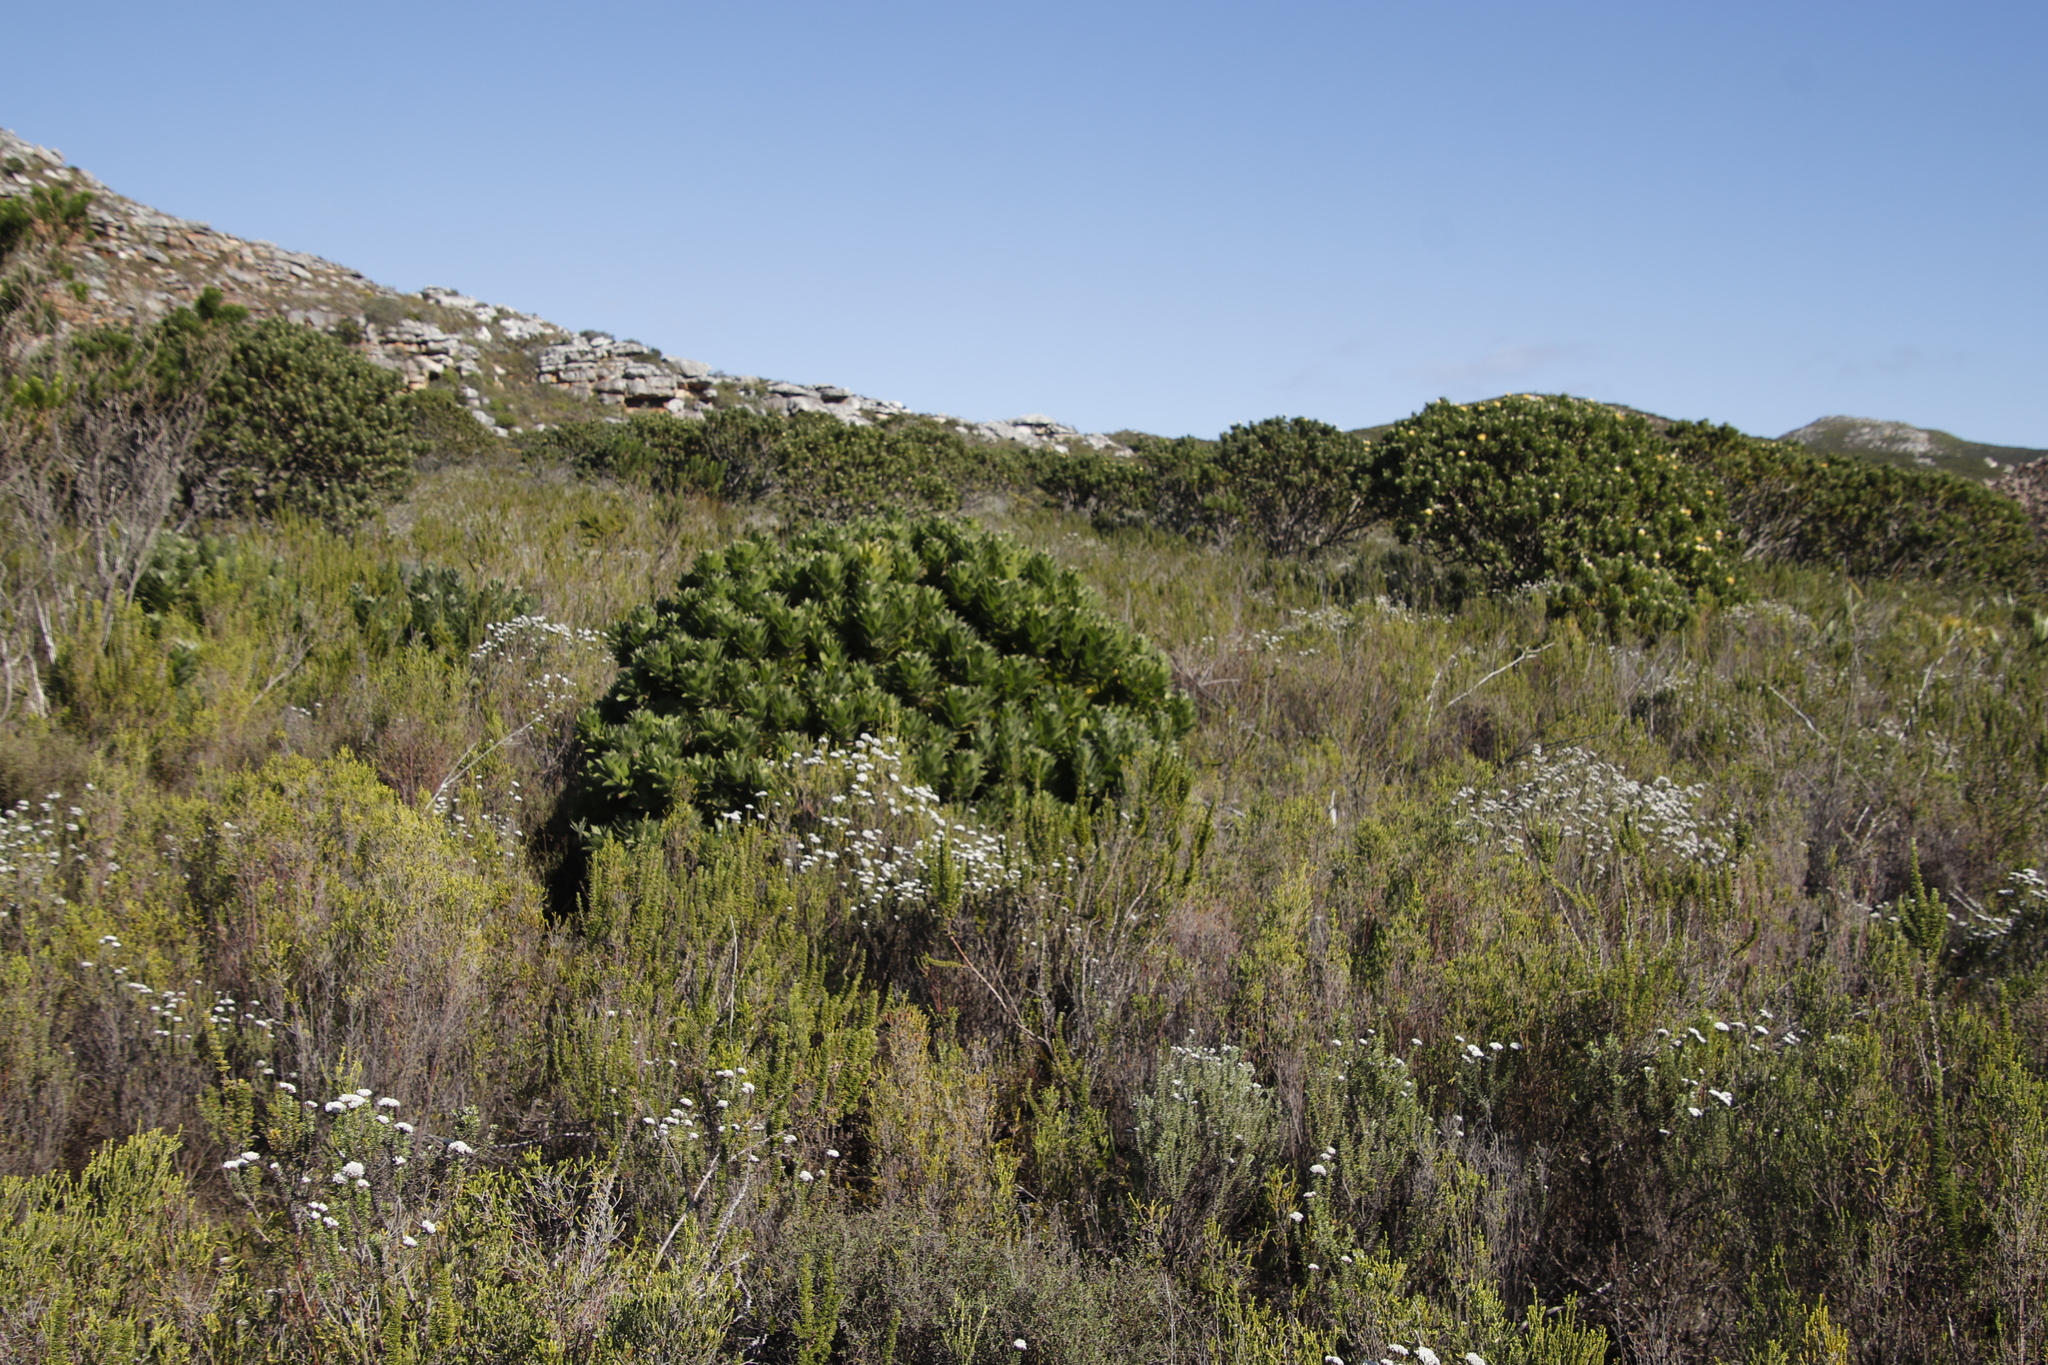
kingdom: Plantae
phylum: Tracheophyta
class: Magnoliopsida
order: Proteales
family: Proteaceae
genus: Leucospermum
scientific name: Leucospermum conocarpodendron
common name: Tree pincushion
